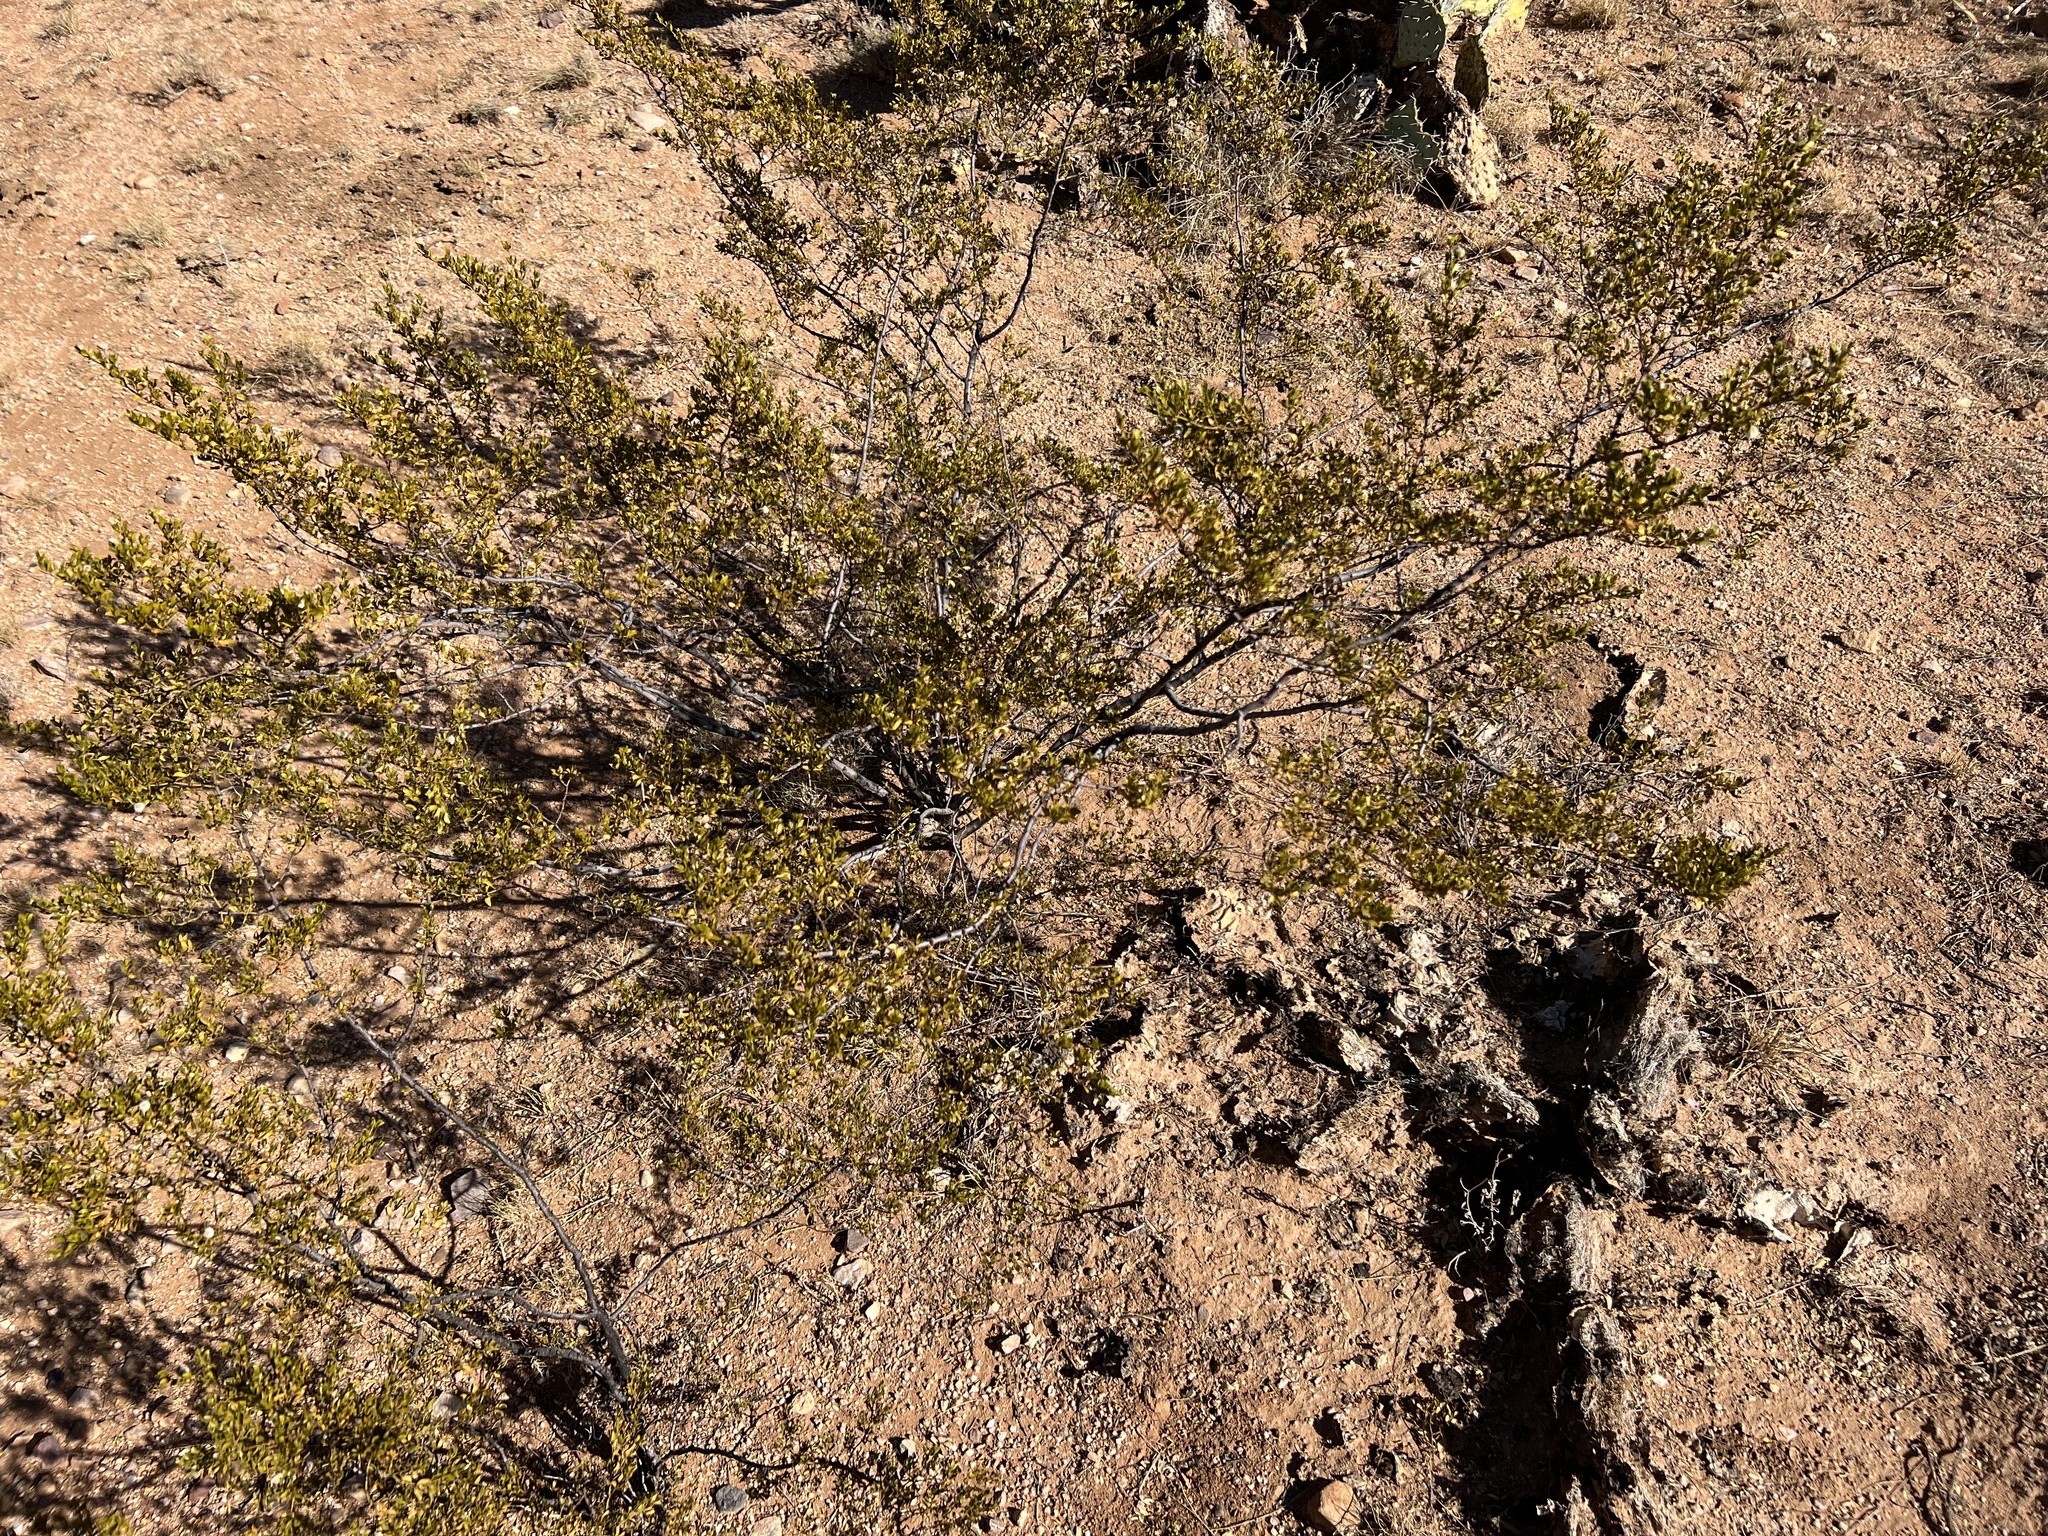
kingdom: Plantae
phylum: Tracheophyta
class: Magnoliopsida
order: Zygophyllales
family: Zygophyllaceae
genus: Larrea
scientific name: Larrea tridentata
